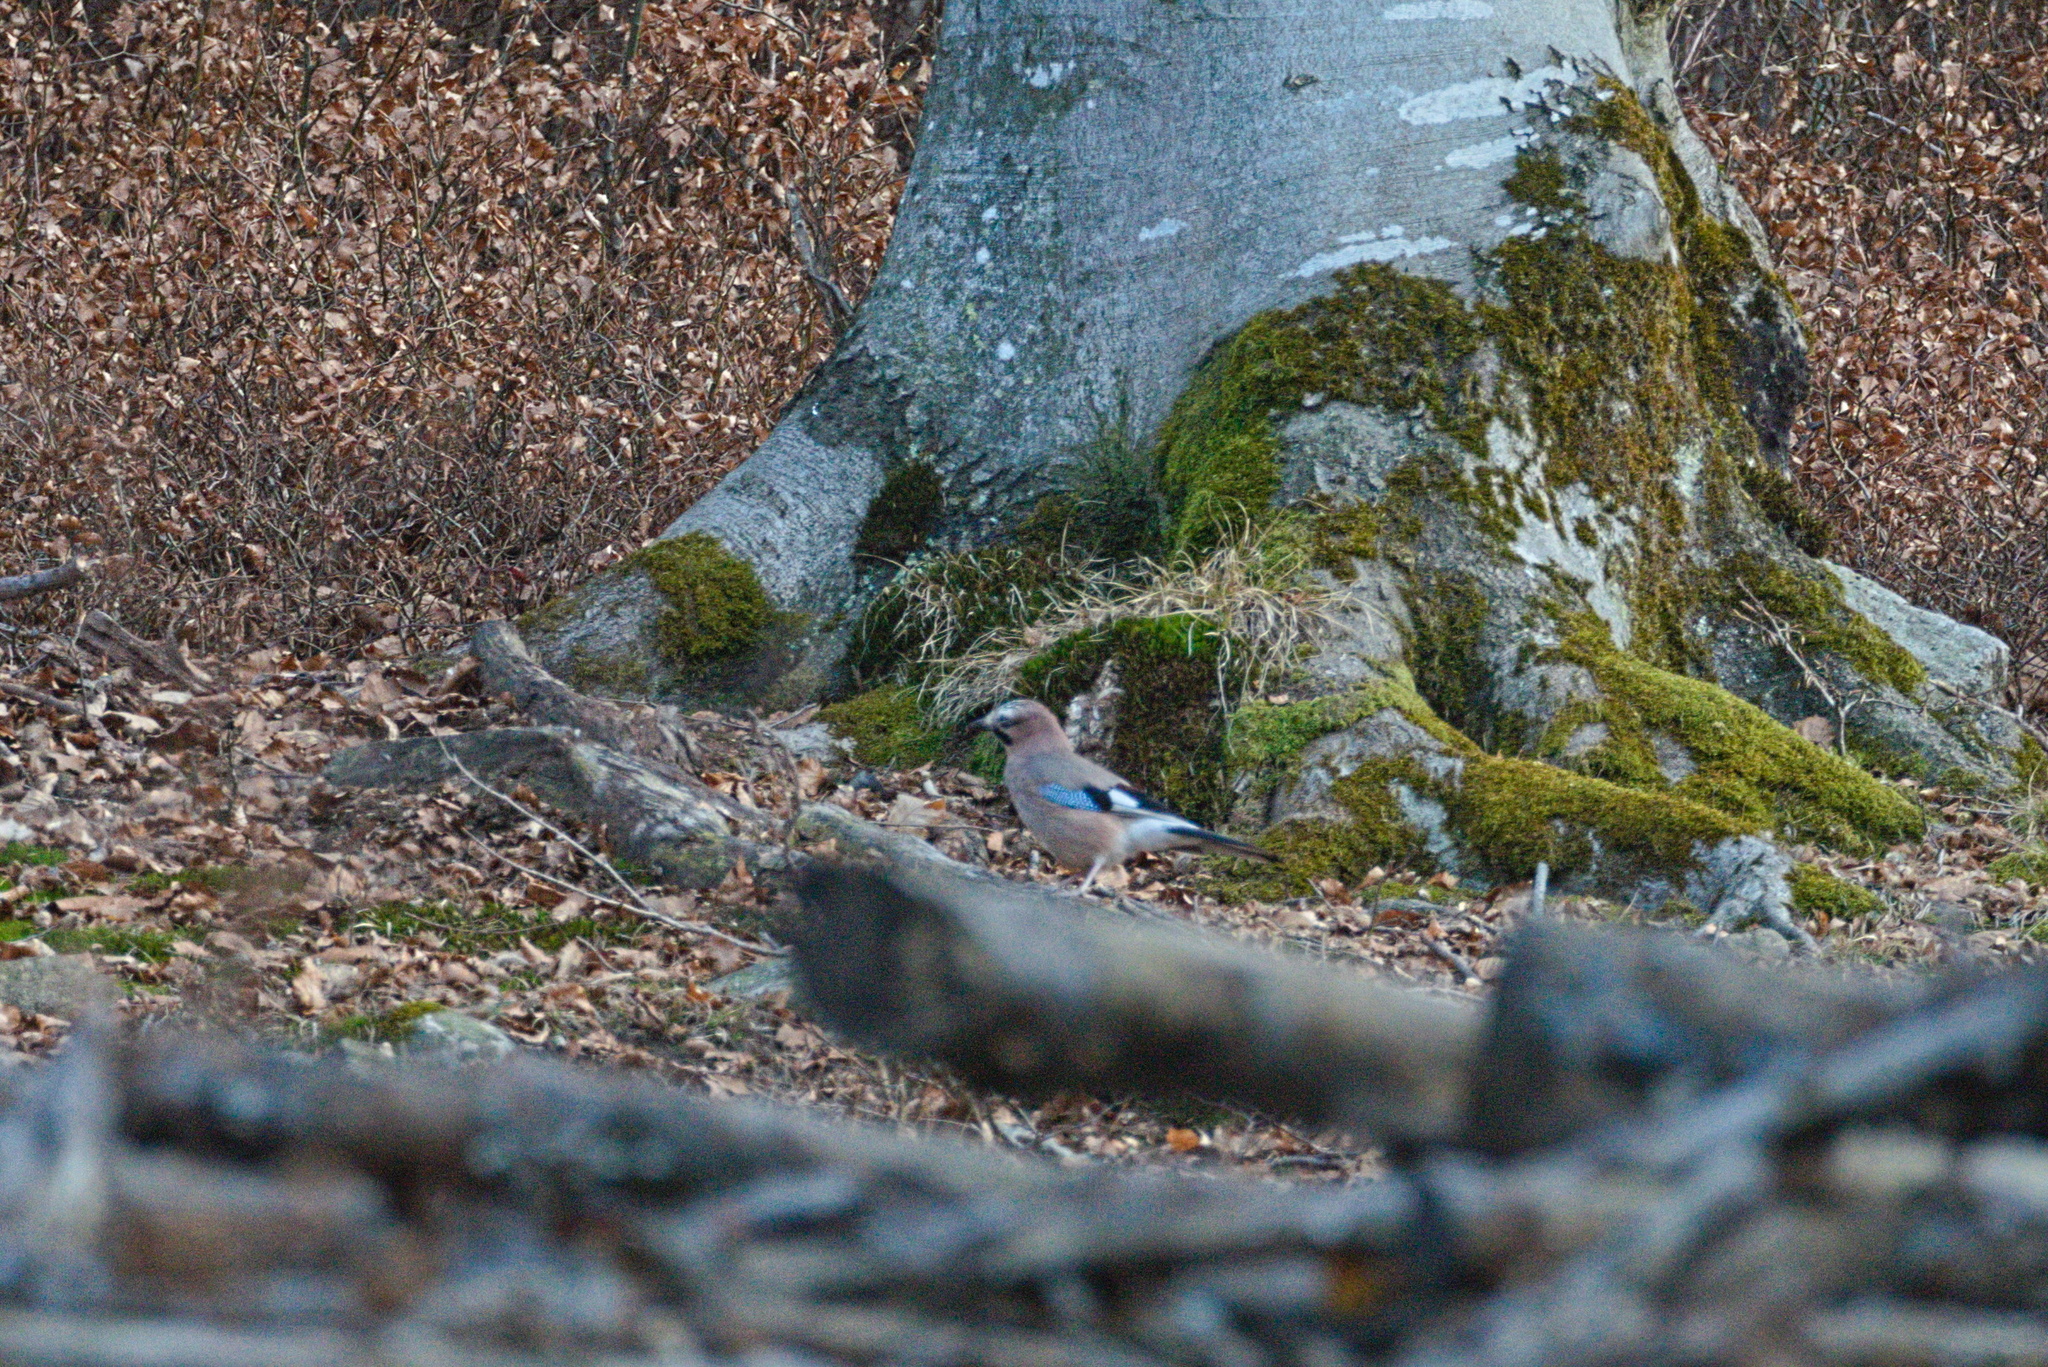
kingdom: Animalia
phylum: Chordata
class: Aves
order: Passeriformes
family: Corvidae
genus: Garrulus
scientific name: Garrulus glandarius
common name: Eurasian jay
